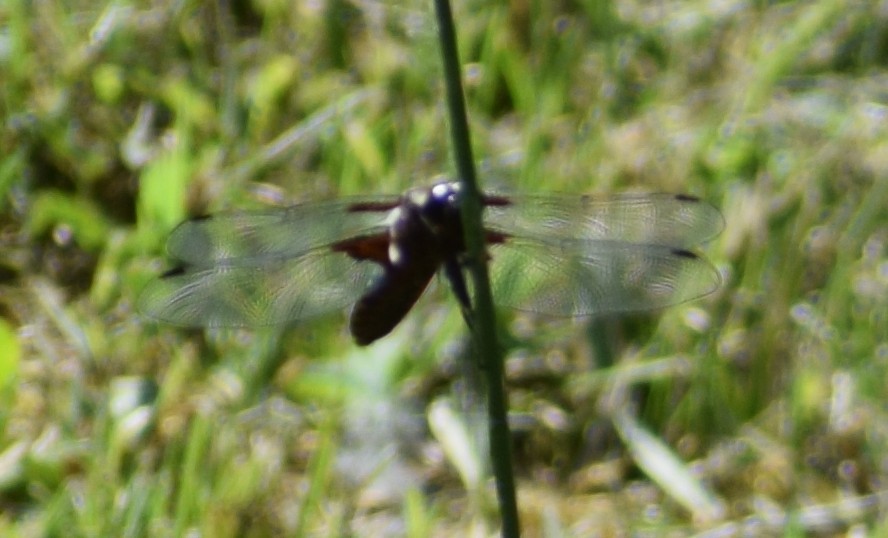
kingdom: Animalia
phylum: Arthropoda
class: Insecta
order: Odonata
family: Libellulidae
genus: Libellula
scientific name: Libellula depressa
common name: Broad-bodied chaser
